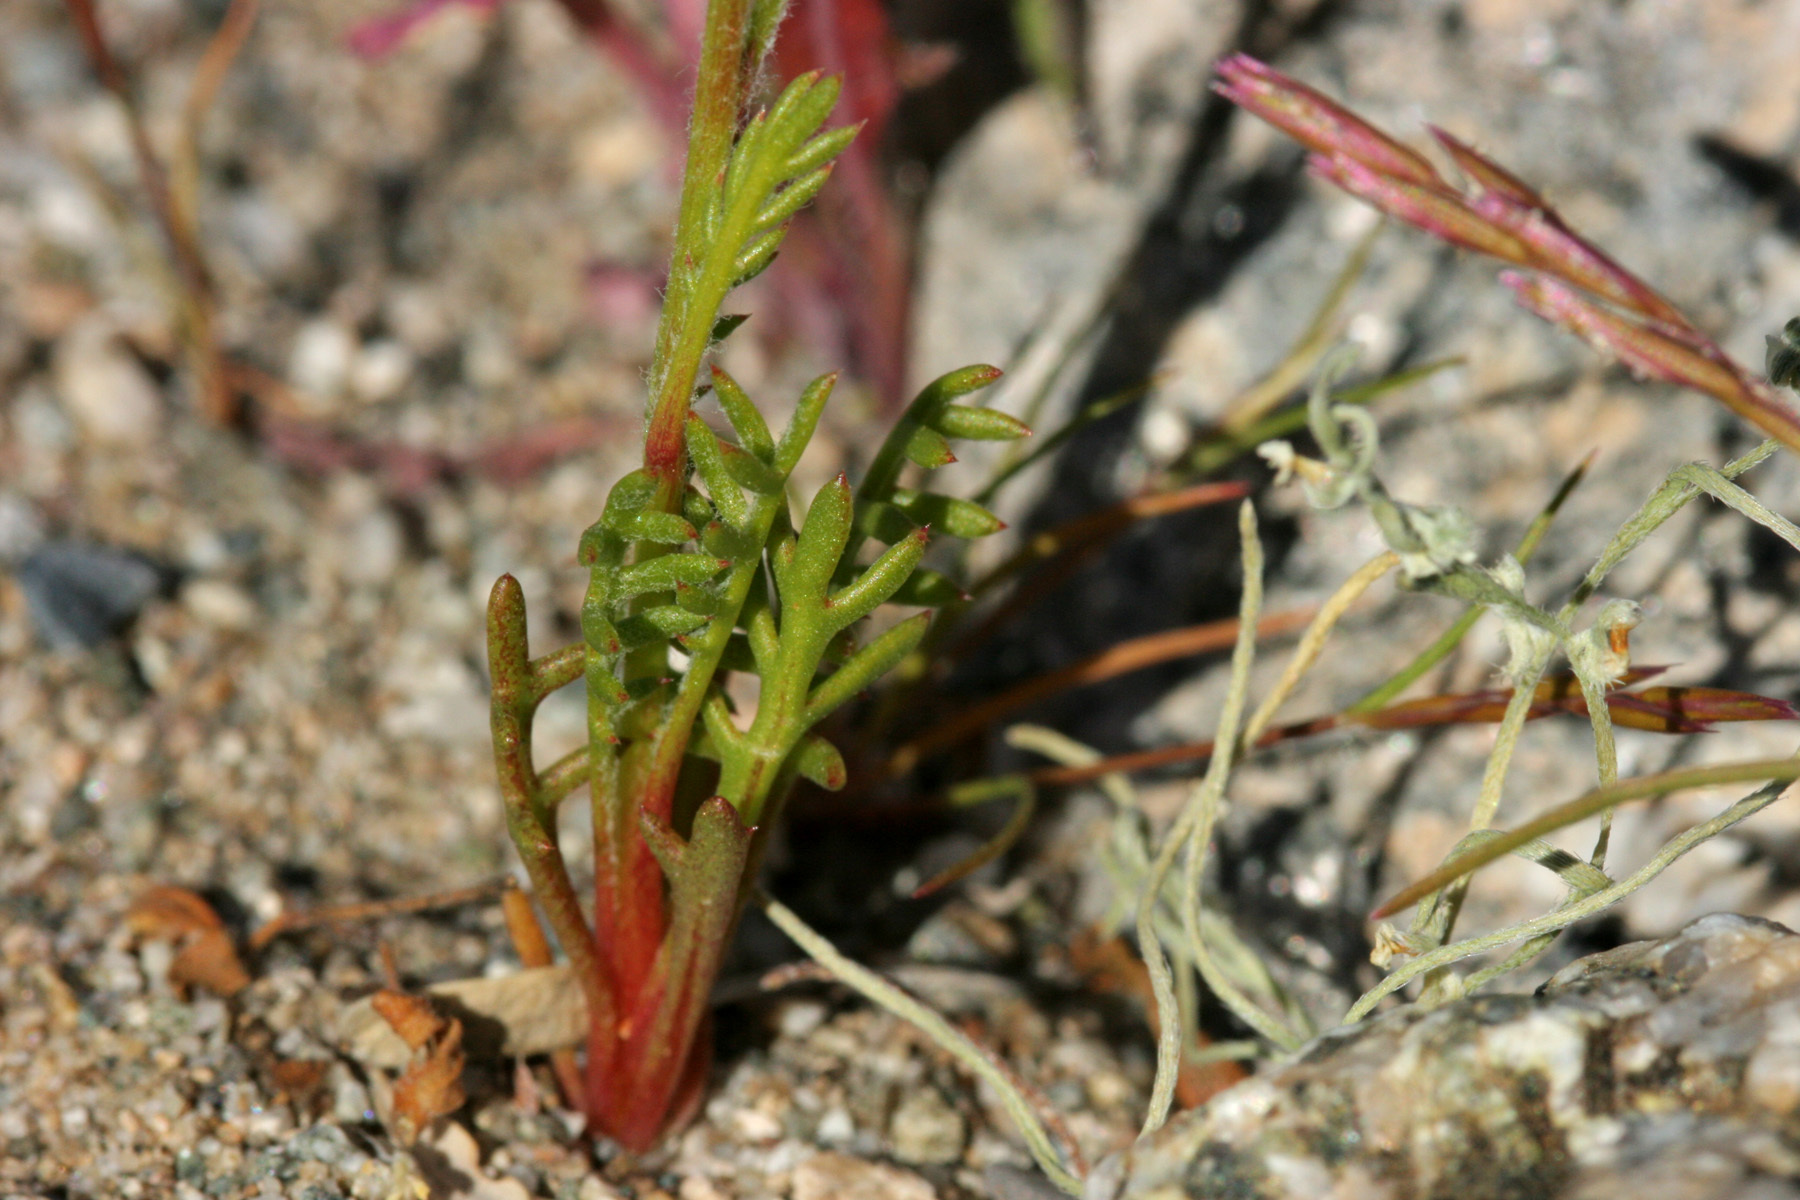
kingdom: Plantae
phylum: Tracheophyta
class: Magnoliopsida
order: Ericales
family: Polemoniaceae
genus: Gilia
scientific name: Gilia flavocincta
